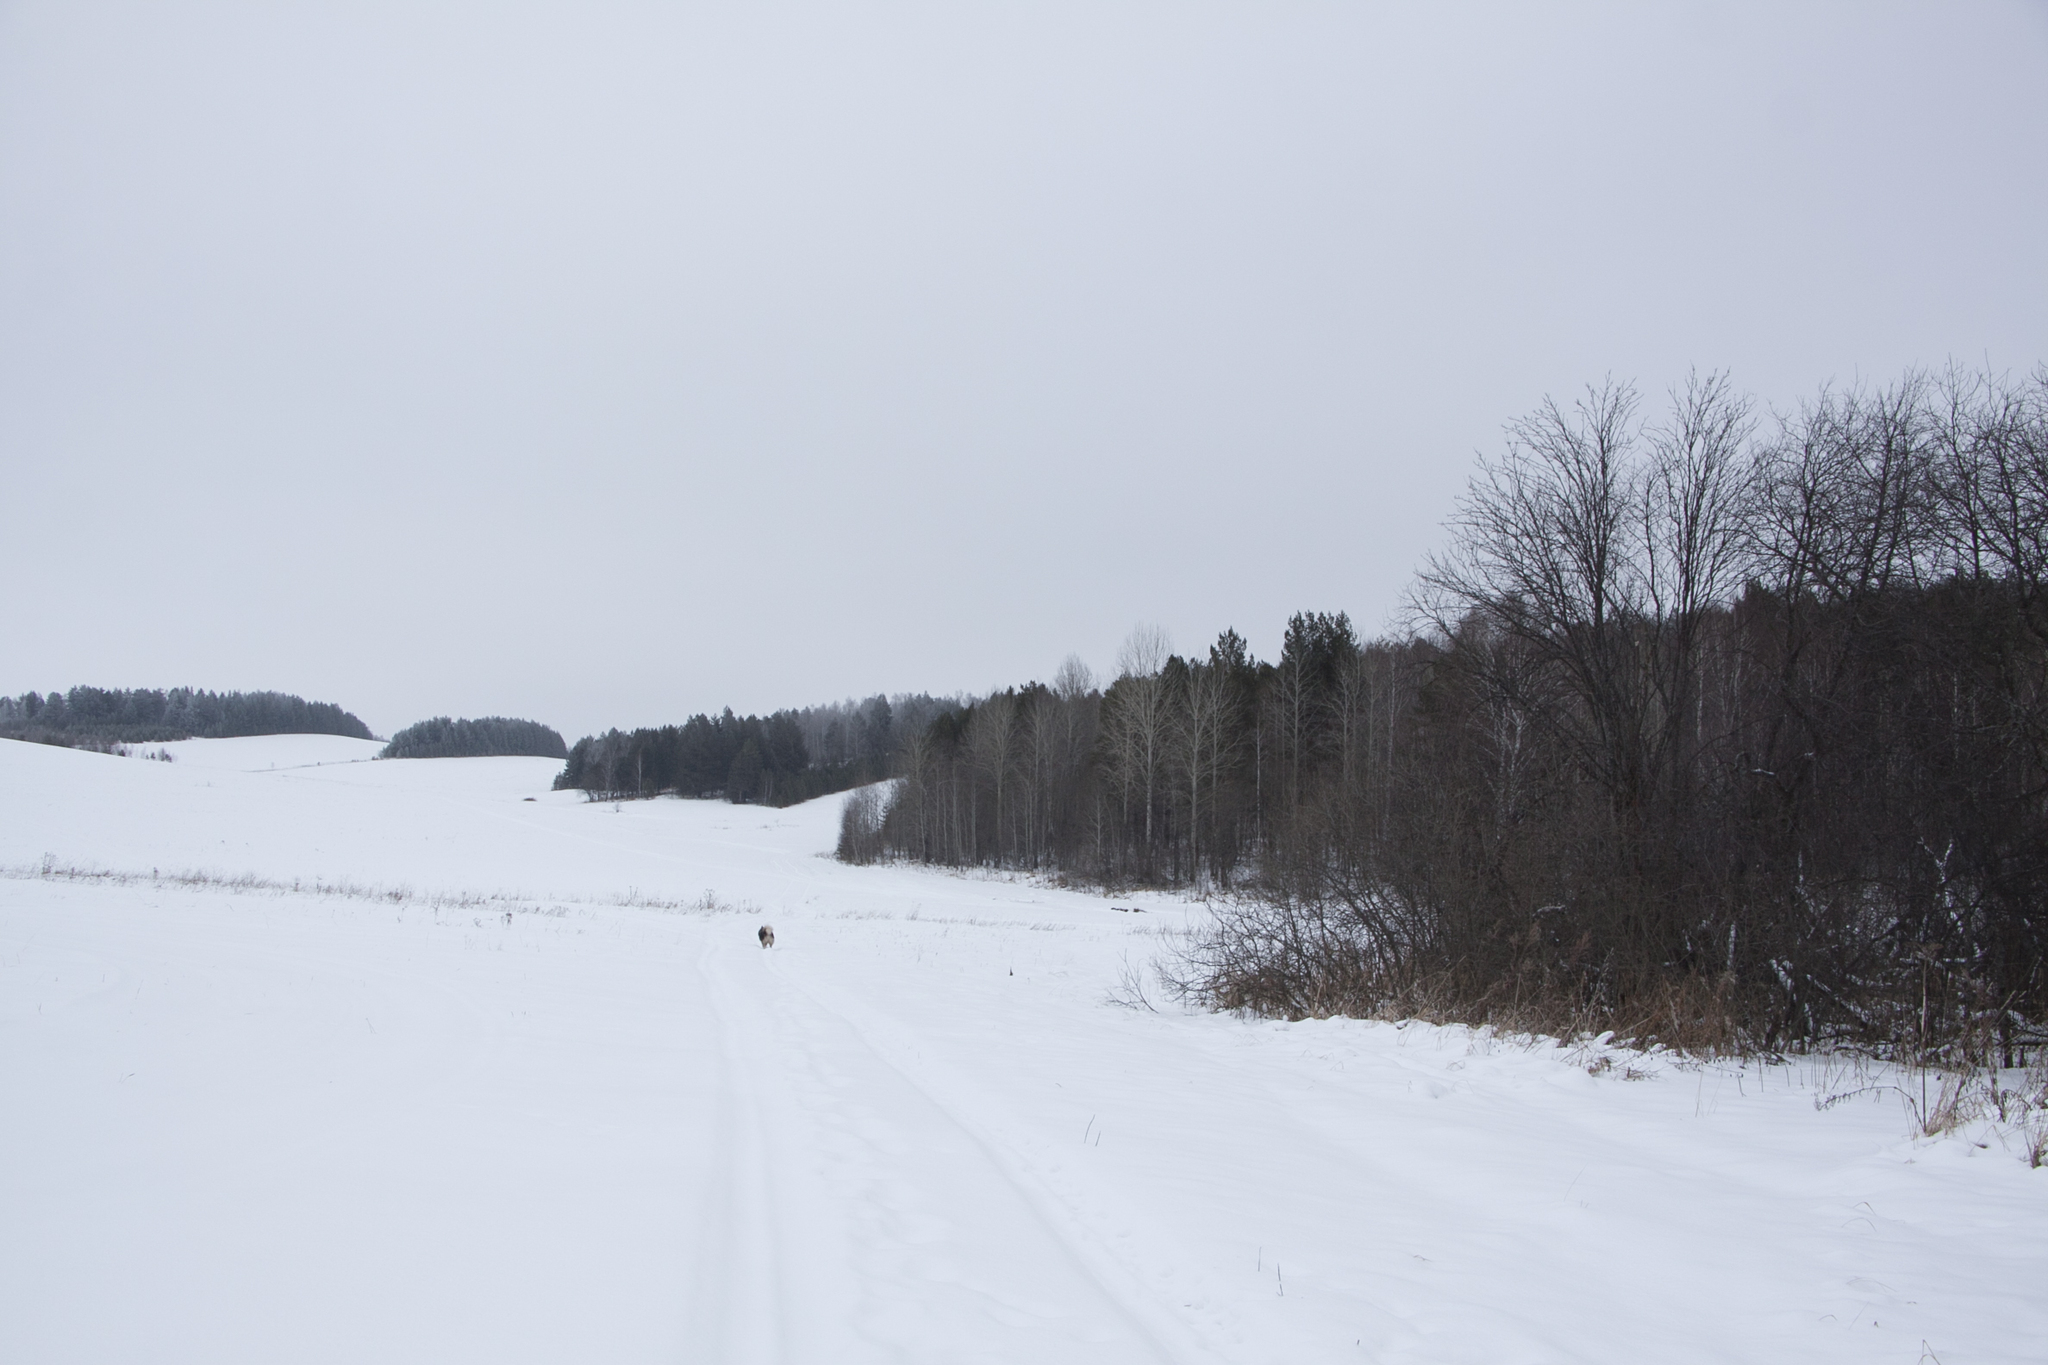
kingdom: Plantae
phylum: Tracheophyta
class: Magnoliopsida
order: Malpighiales
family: Salicaceae
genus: Populus
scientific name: Populus tremula
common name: European aspen
